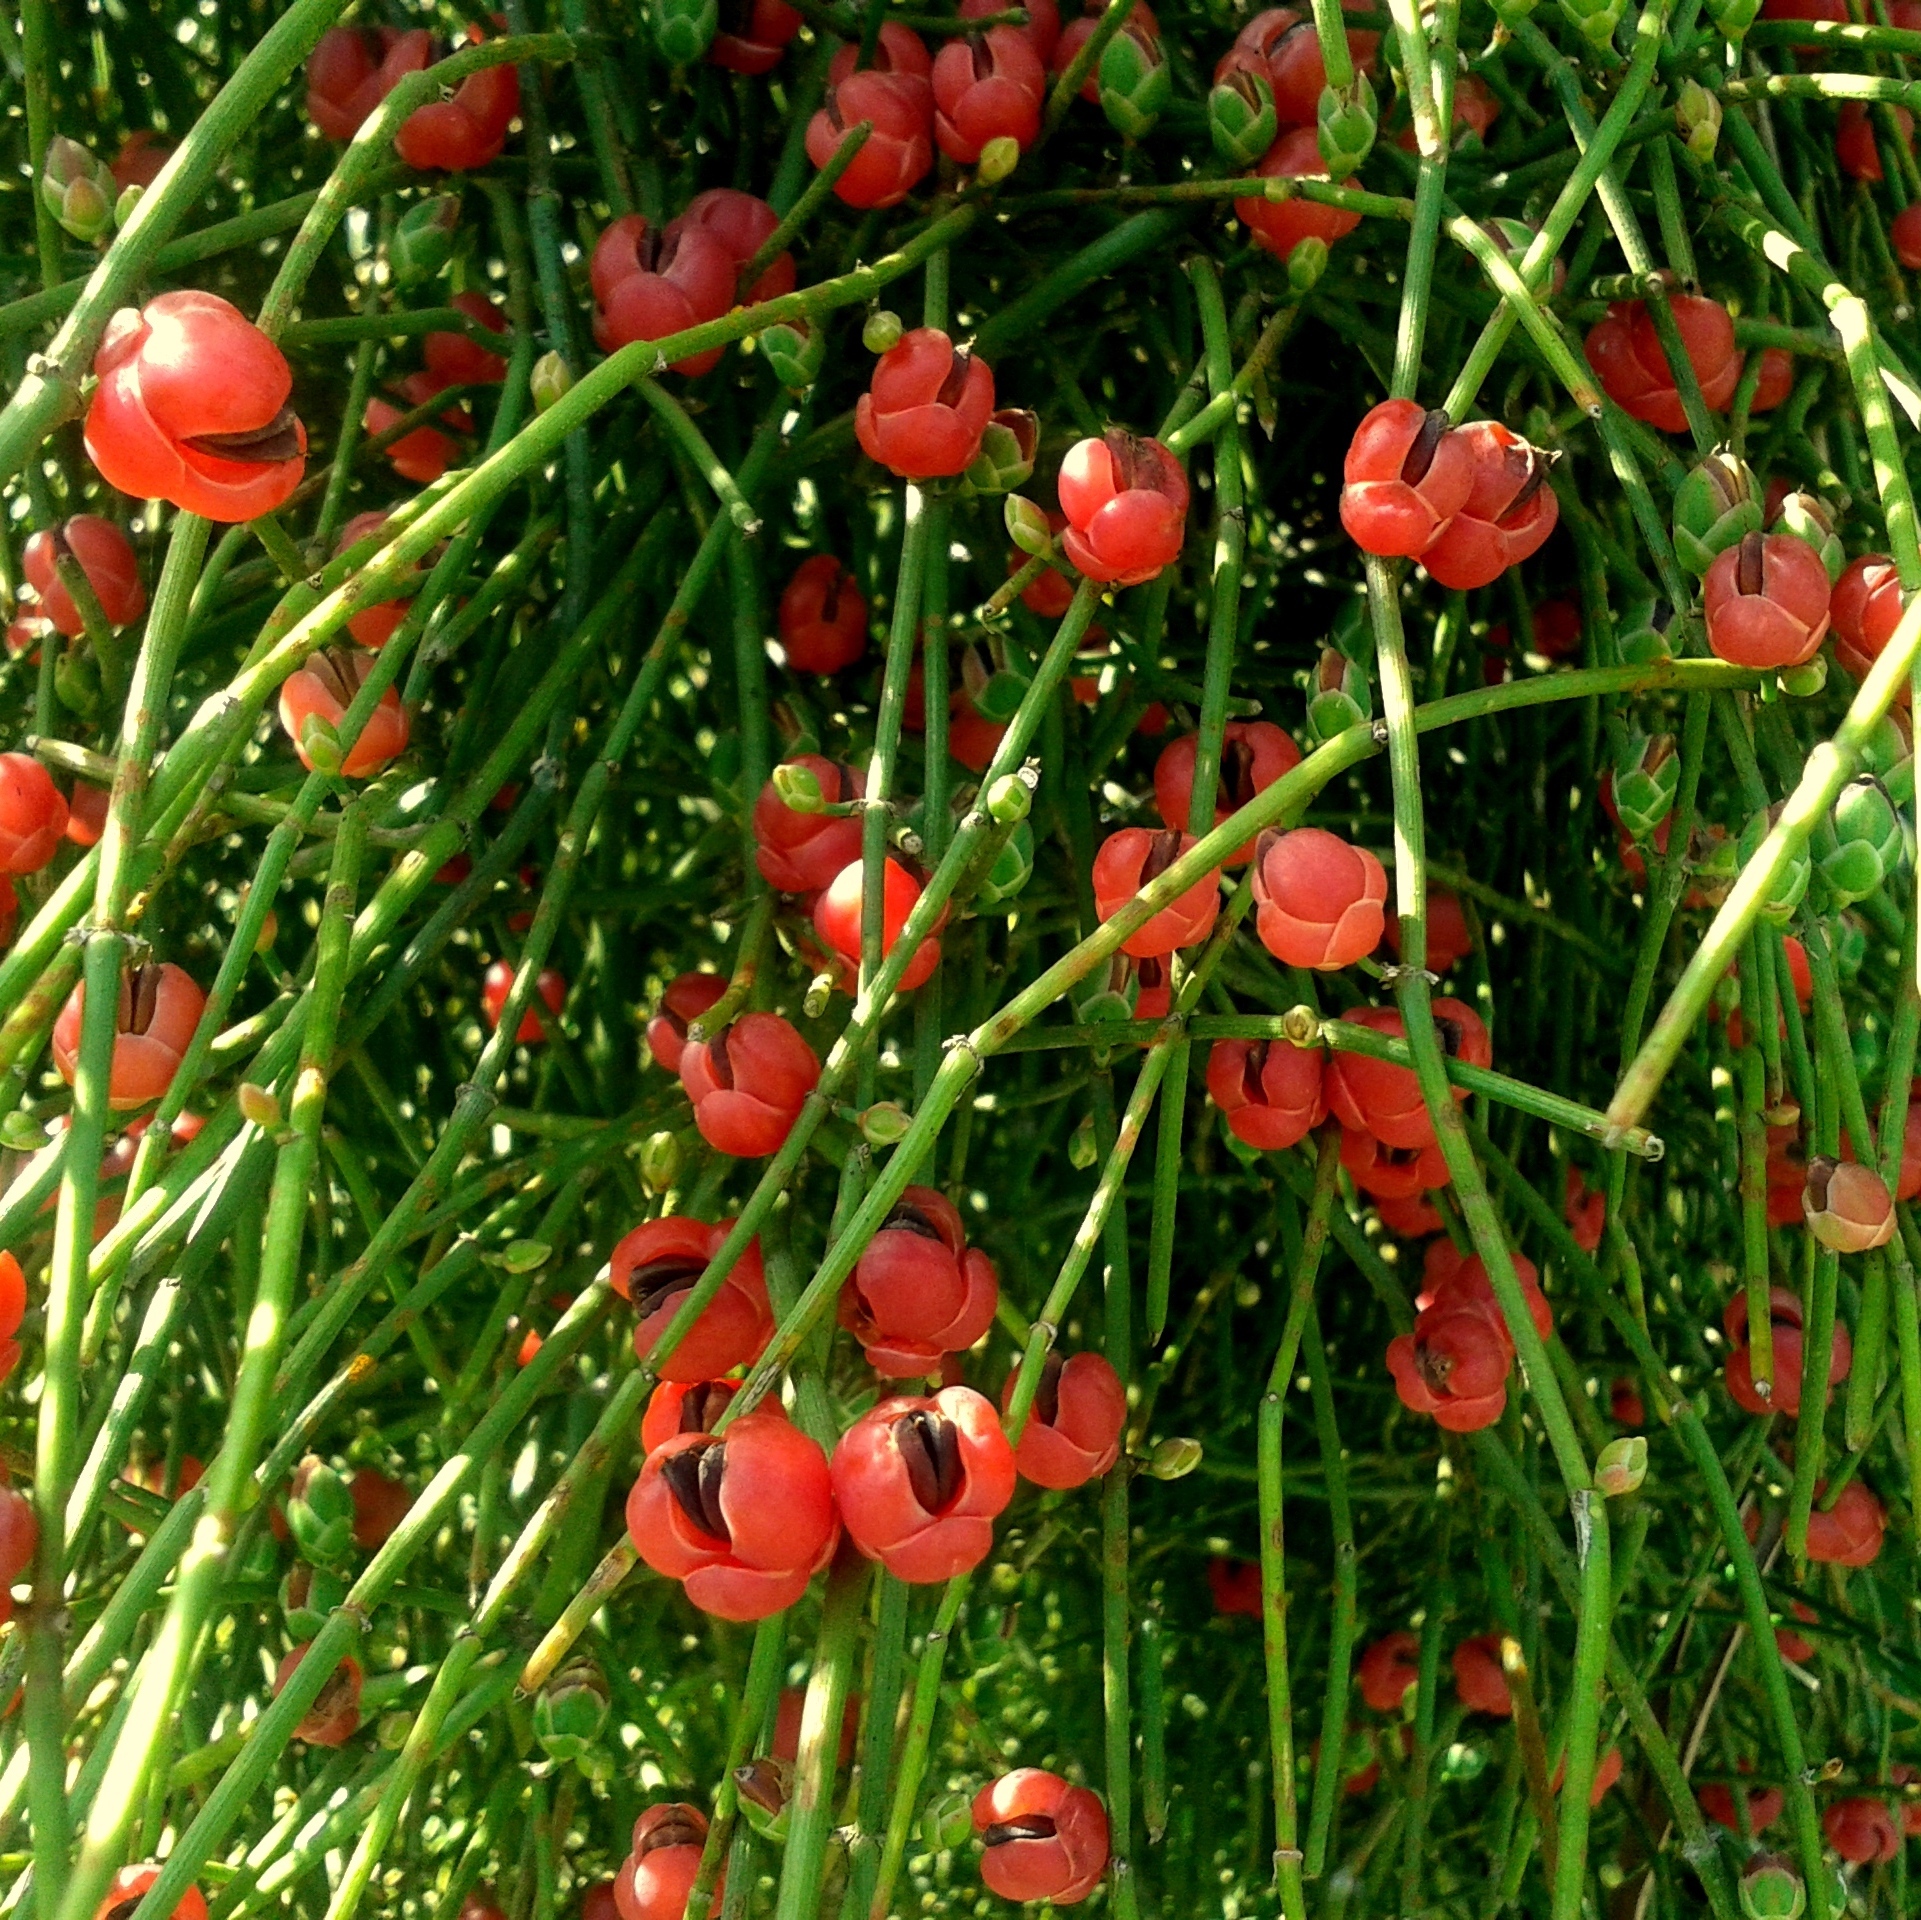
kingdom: Plantae
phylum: Tracheophyta
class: Gnetopsida
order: Ephedrales
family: Ephedraceae
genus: Ephedra
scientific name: Ephedra tweedieana
